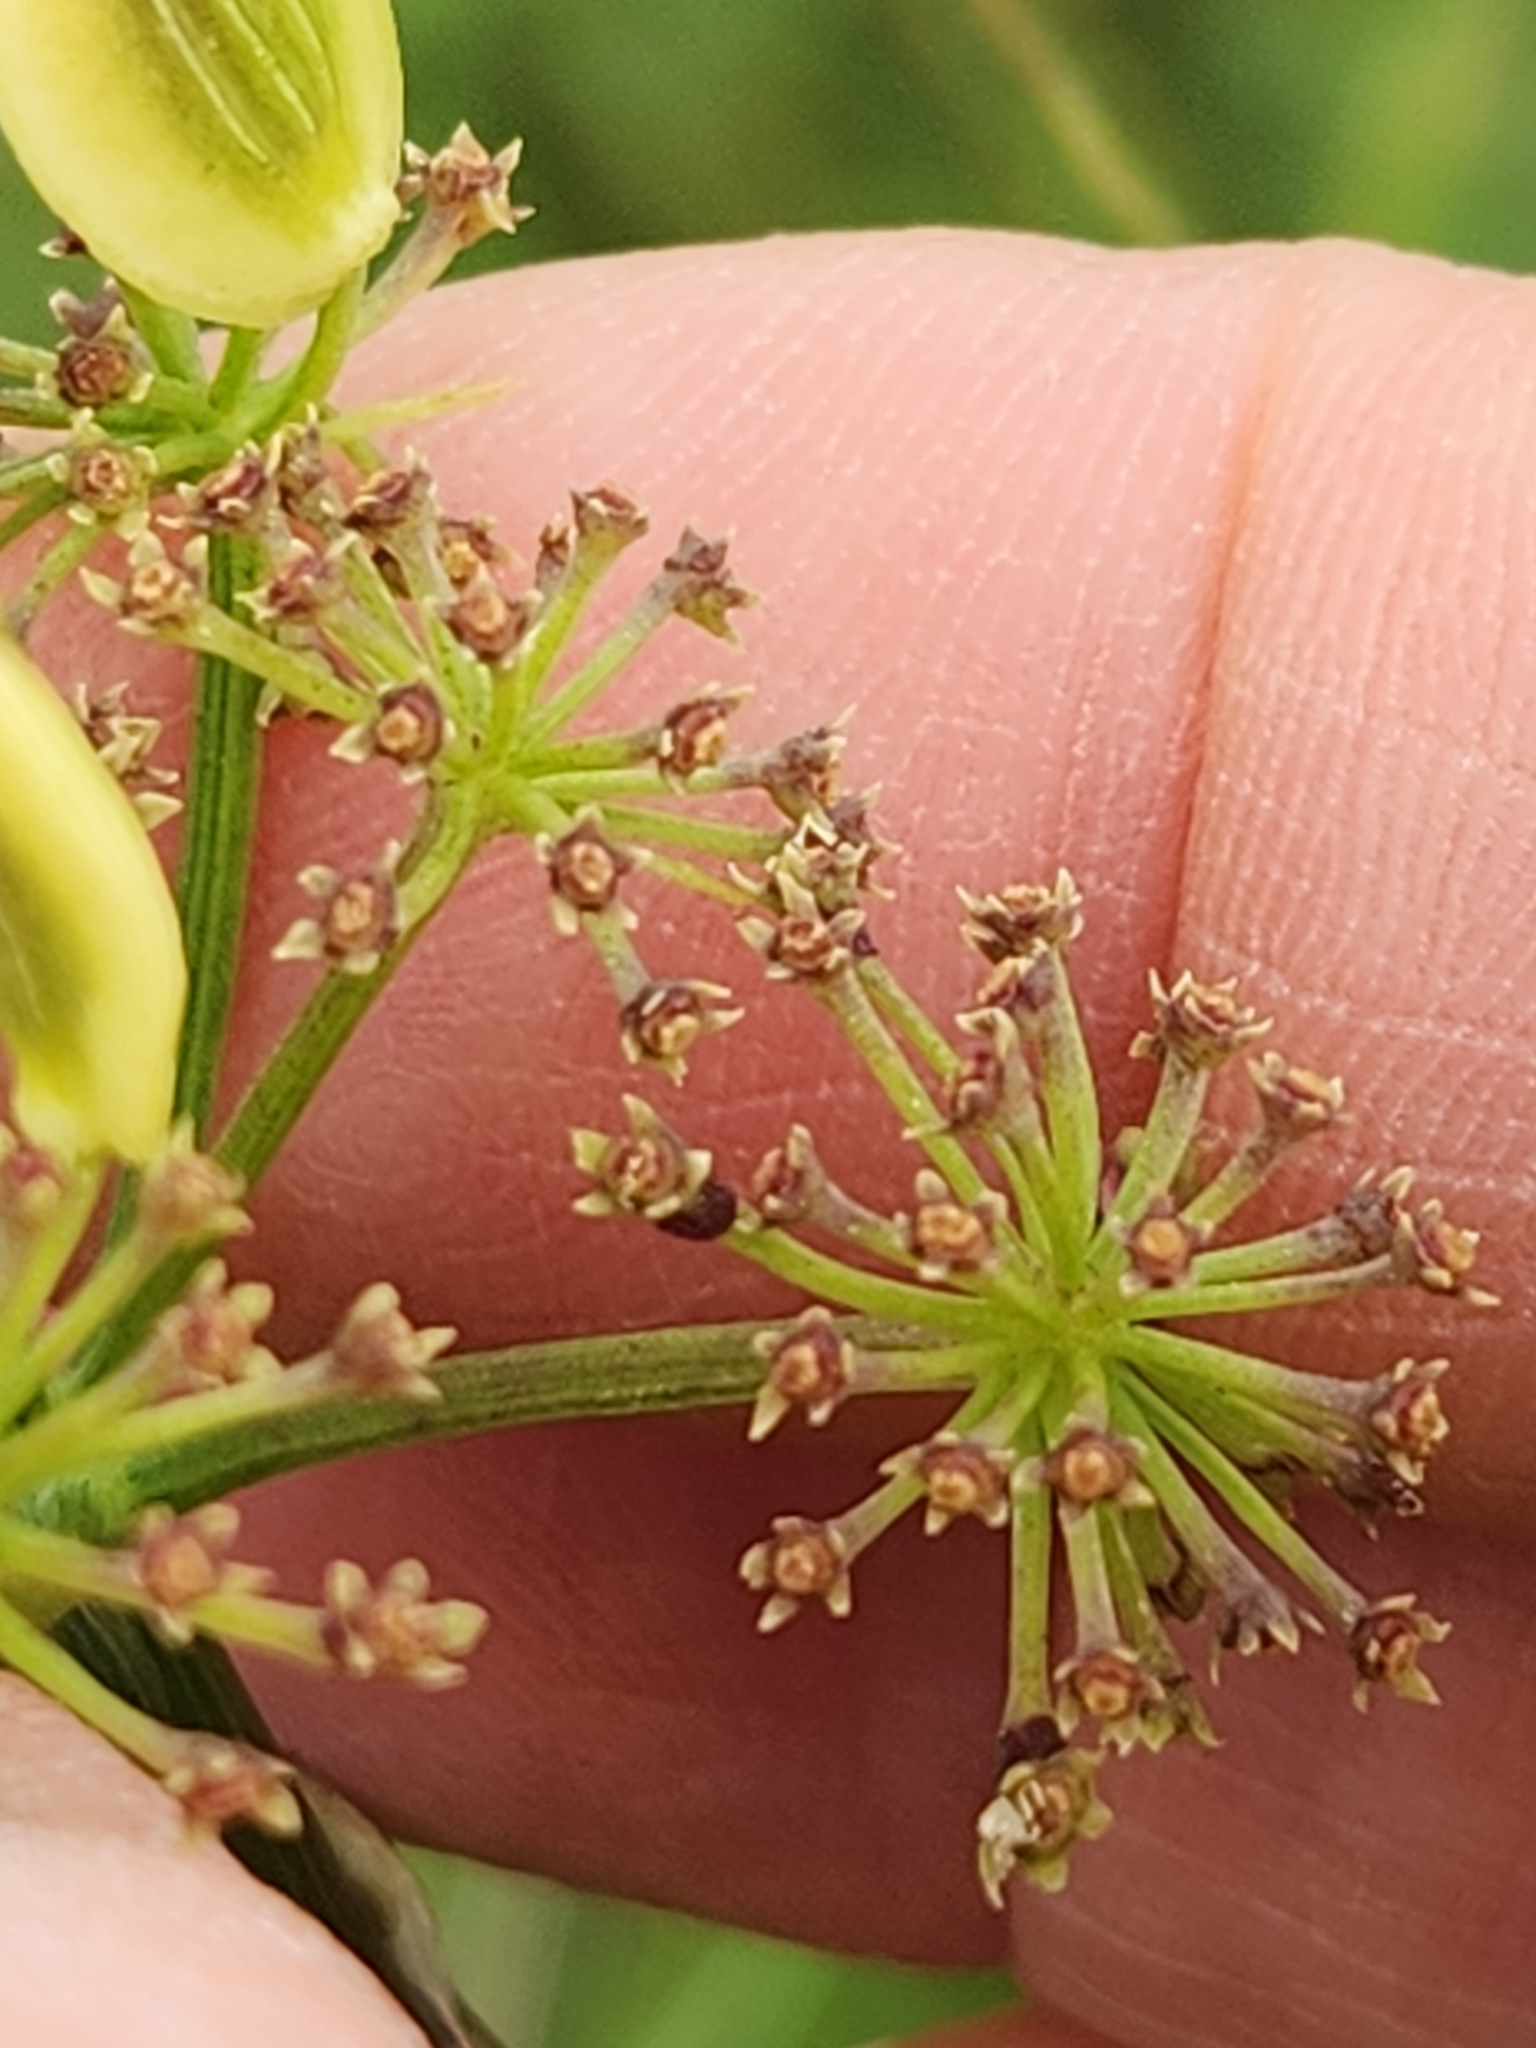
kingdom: Plantae
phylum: Tracheophyta
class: Magnoliopsida
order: Apiales
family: Apiaceae
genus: Polytaenia
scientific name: Polytaenia texana
